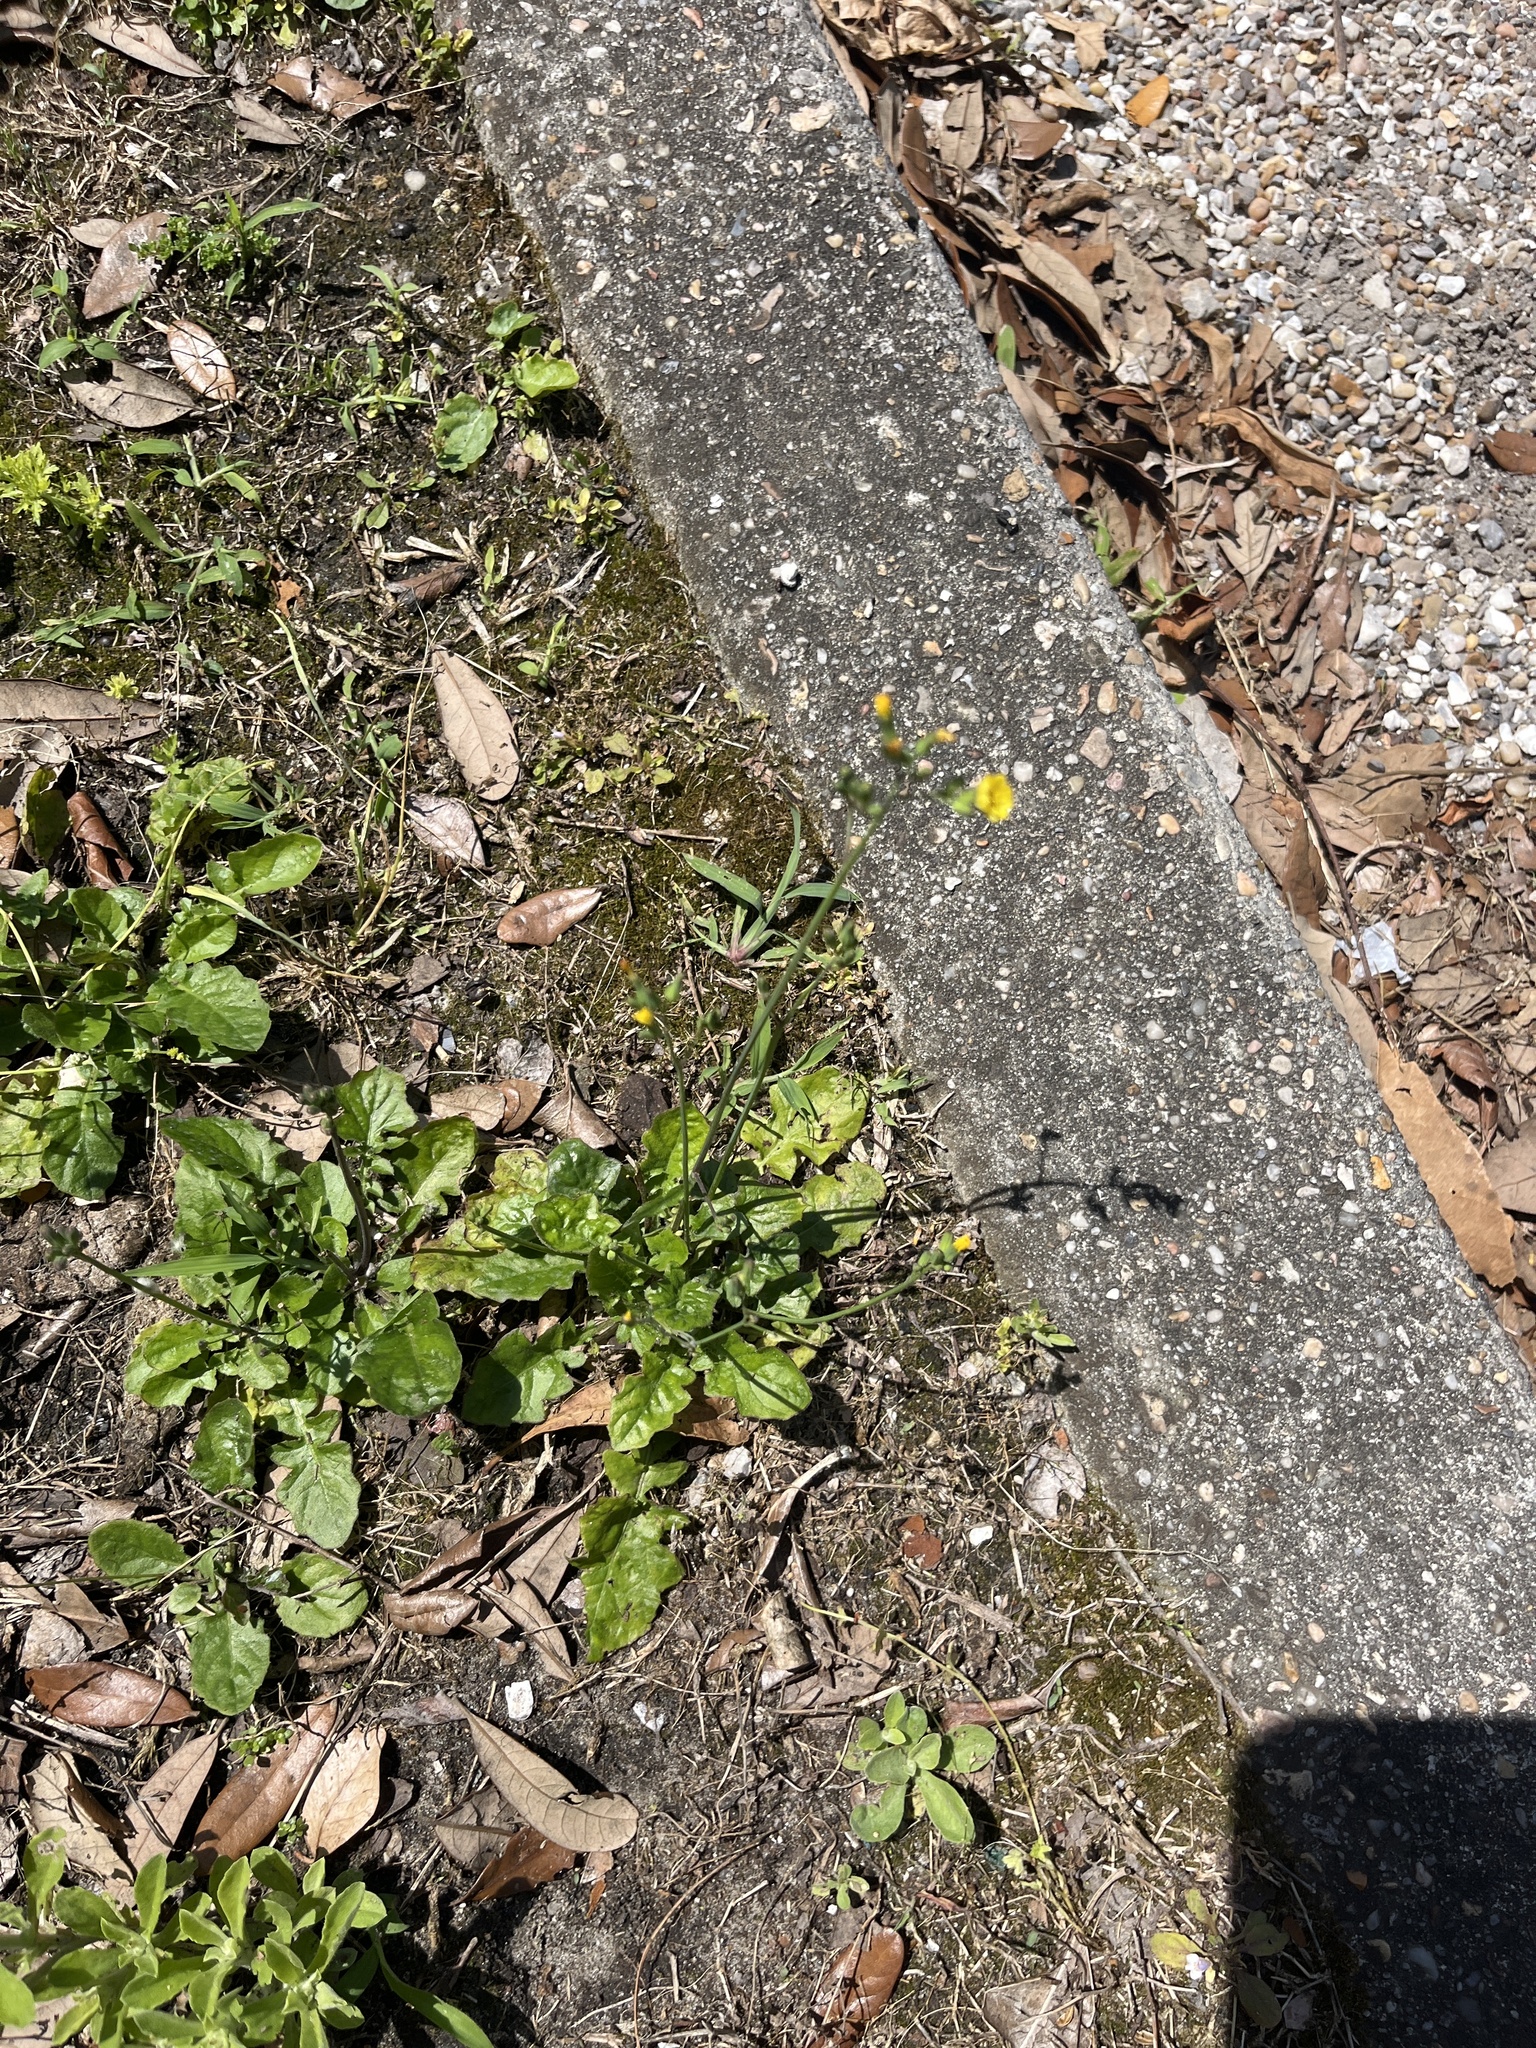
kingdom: Plantae
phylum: Tracheophyta
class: Magnoliopsida
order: Asterales
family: Asteraceae
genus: Youngia
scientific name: Youngia japonica
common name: Oriental false hawksbeard
